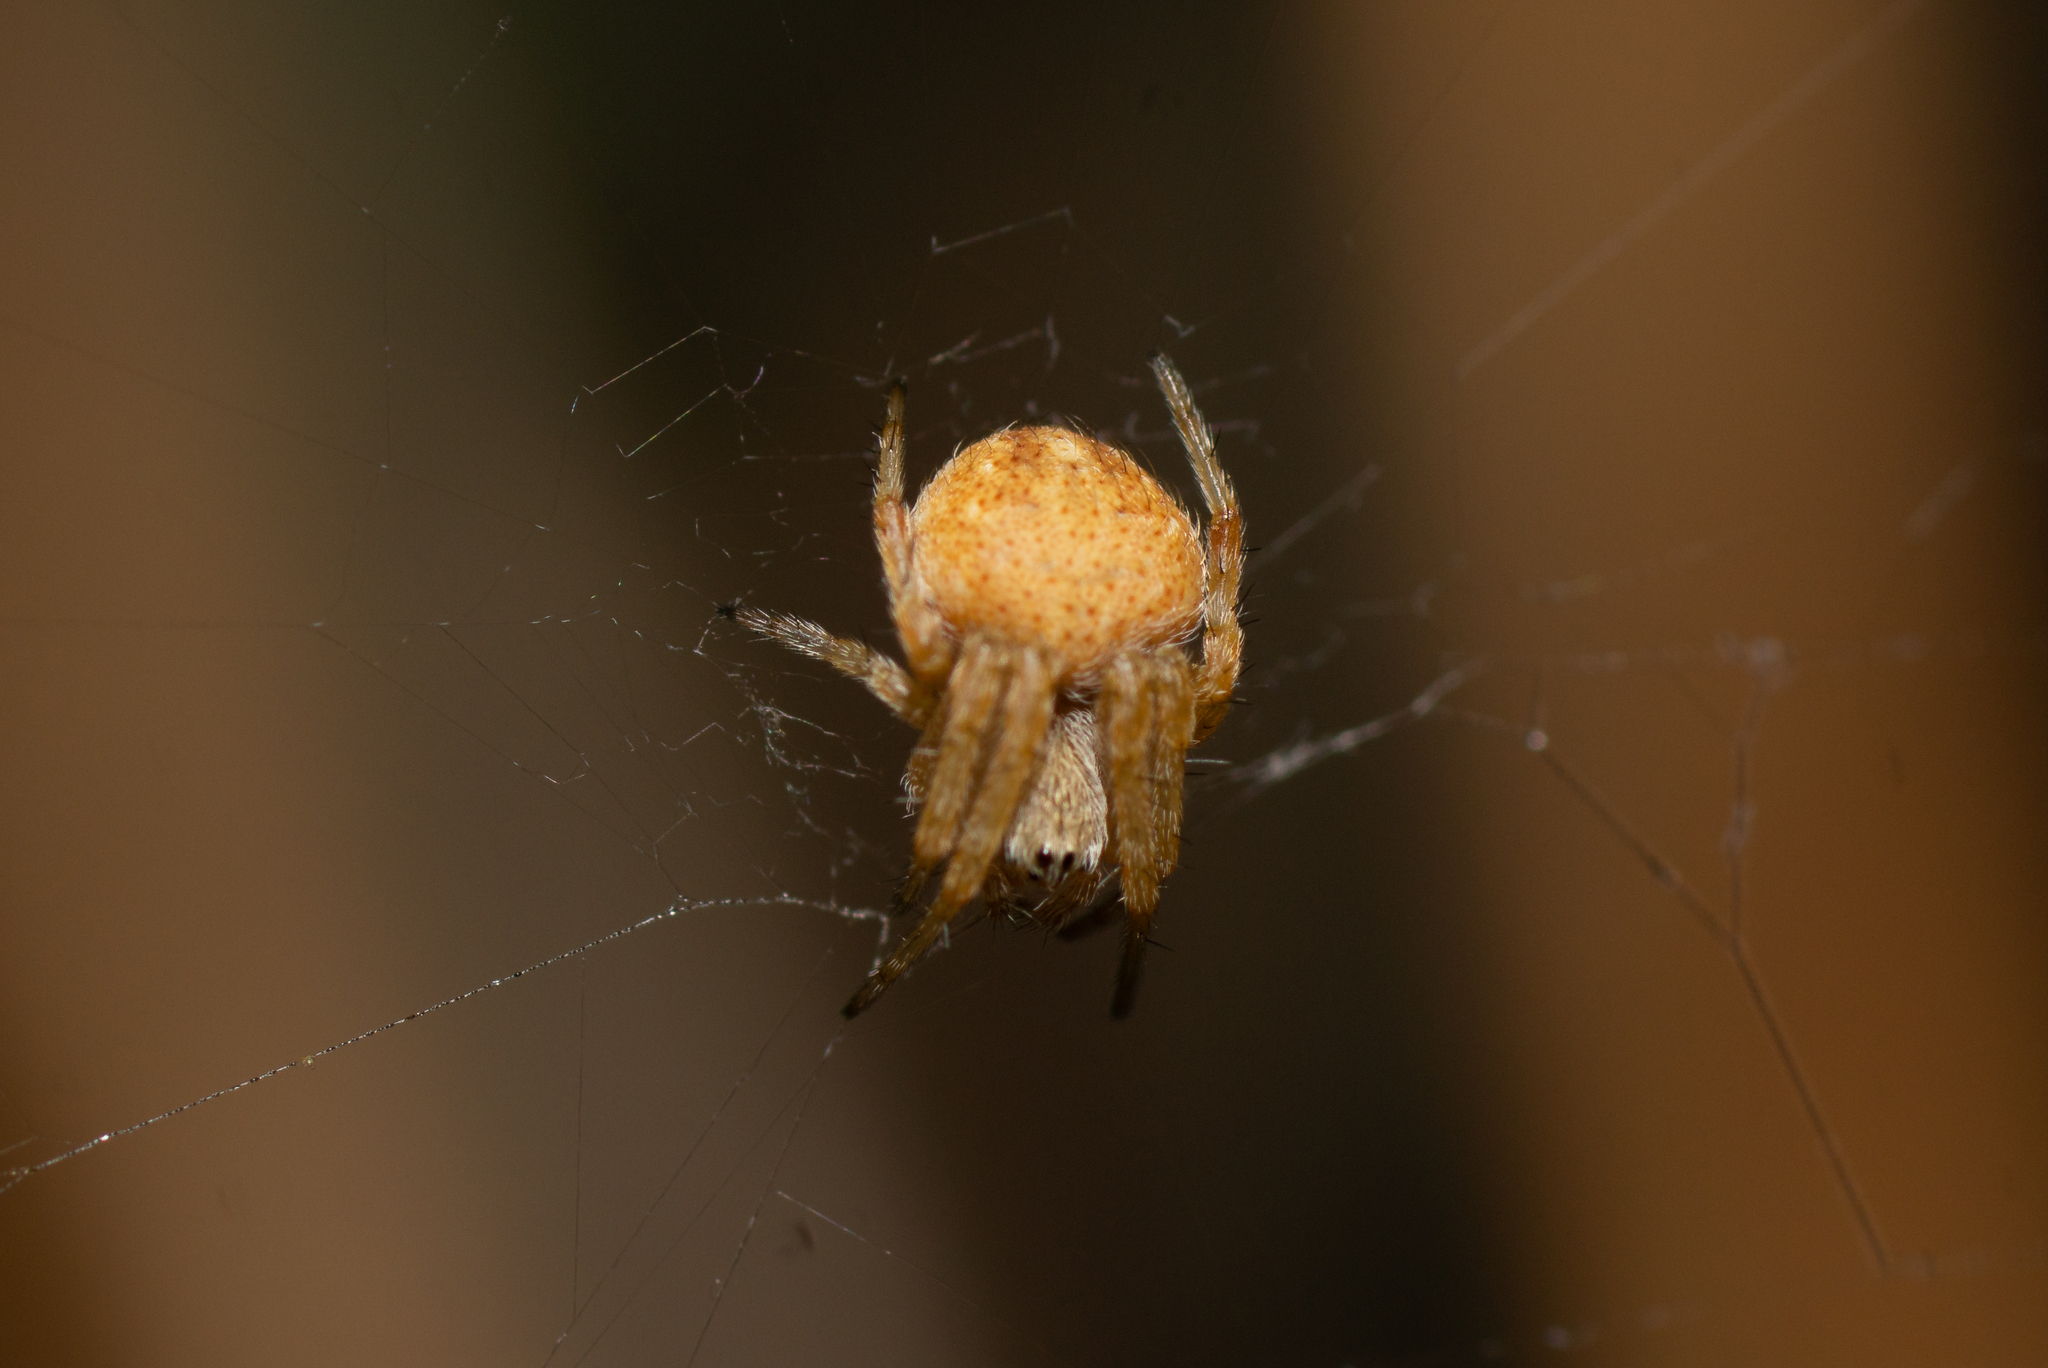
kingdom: Animalia
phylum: Arthropoda
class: Arachnida
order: Araneae
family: Araneidae
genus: Agalenatea
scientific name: Agalenatea redii
